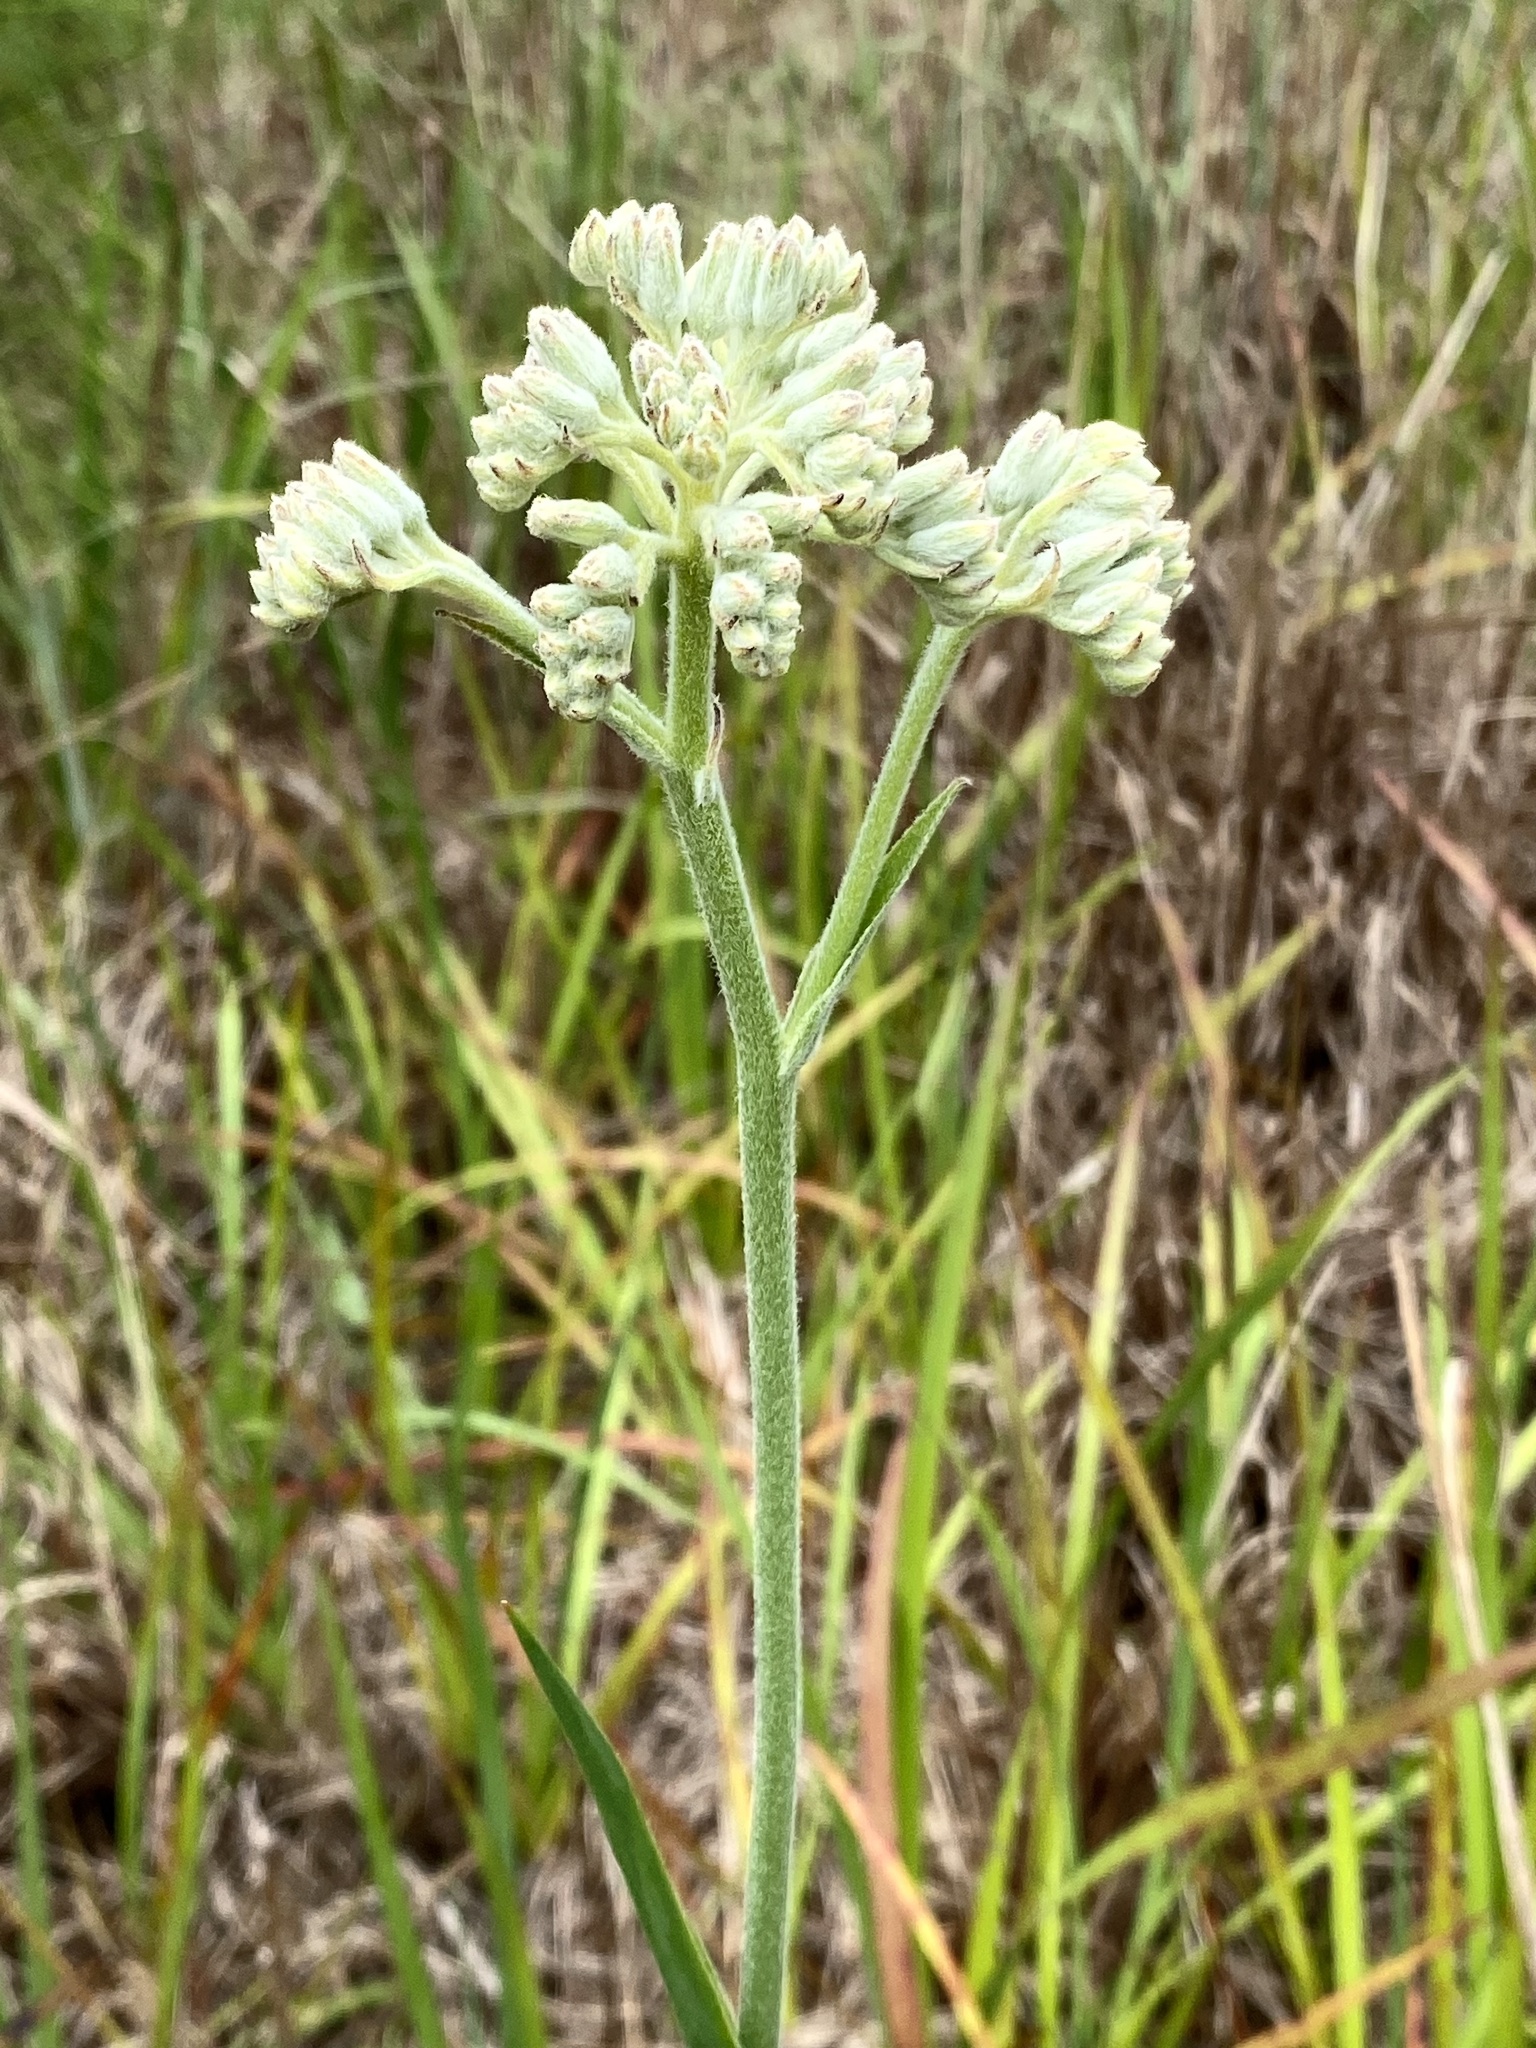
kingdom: Plantae
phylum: Tracheophyta
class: Liliopsida
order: Commelinales
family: Haemodoraceae
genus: Lachnanthes
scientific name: Lachnanthes caroliana
